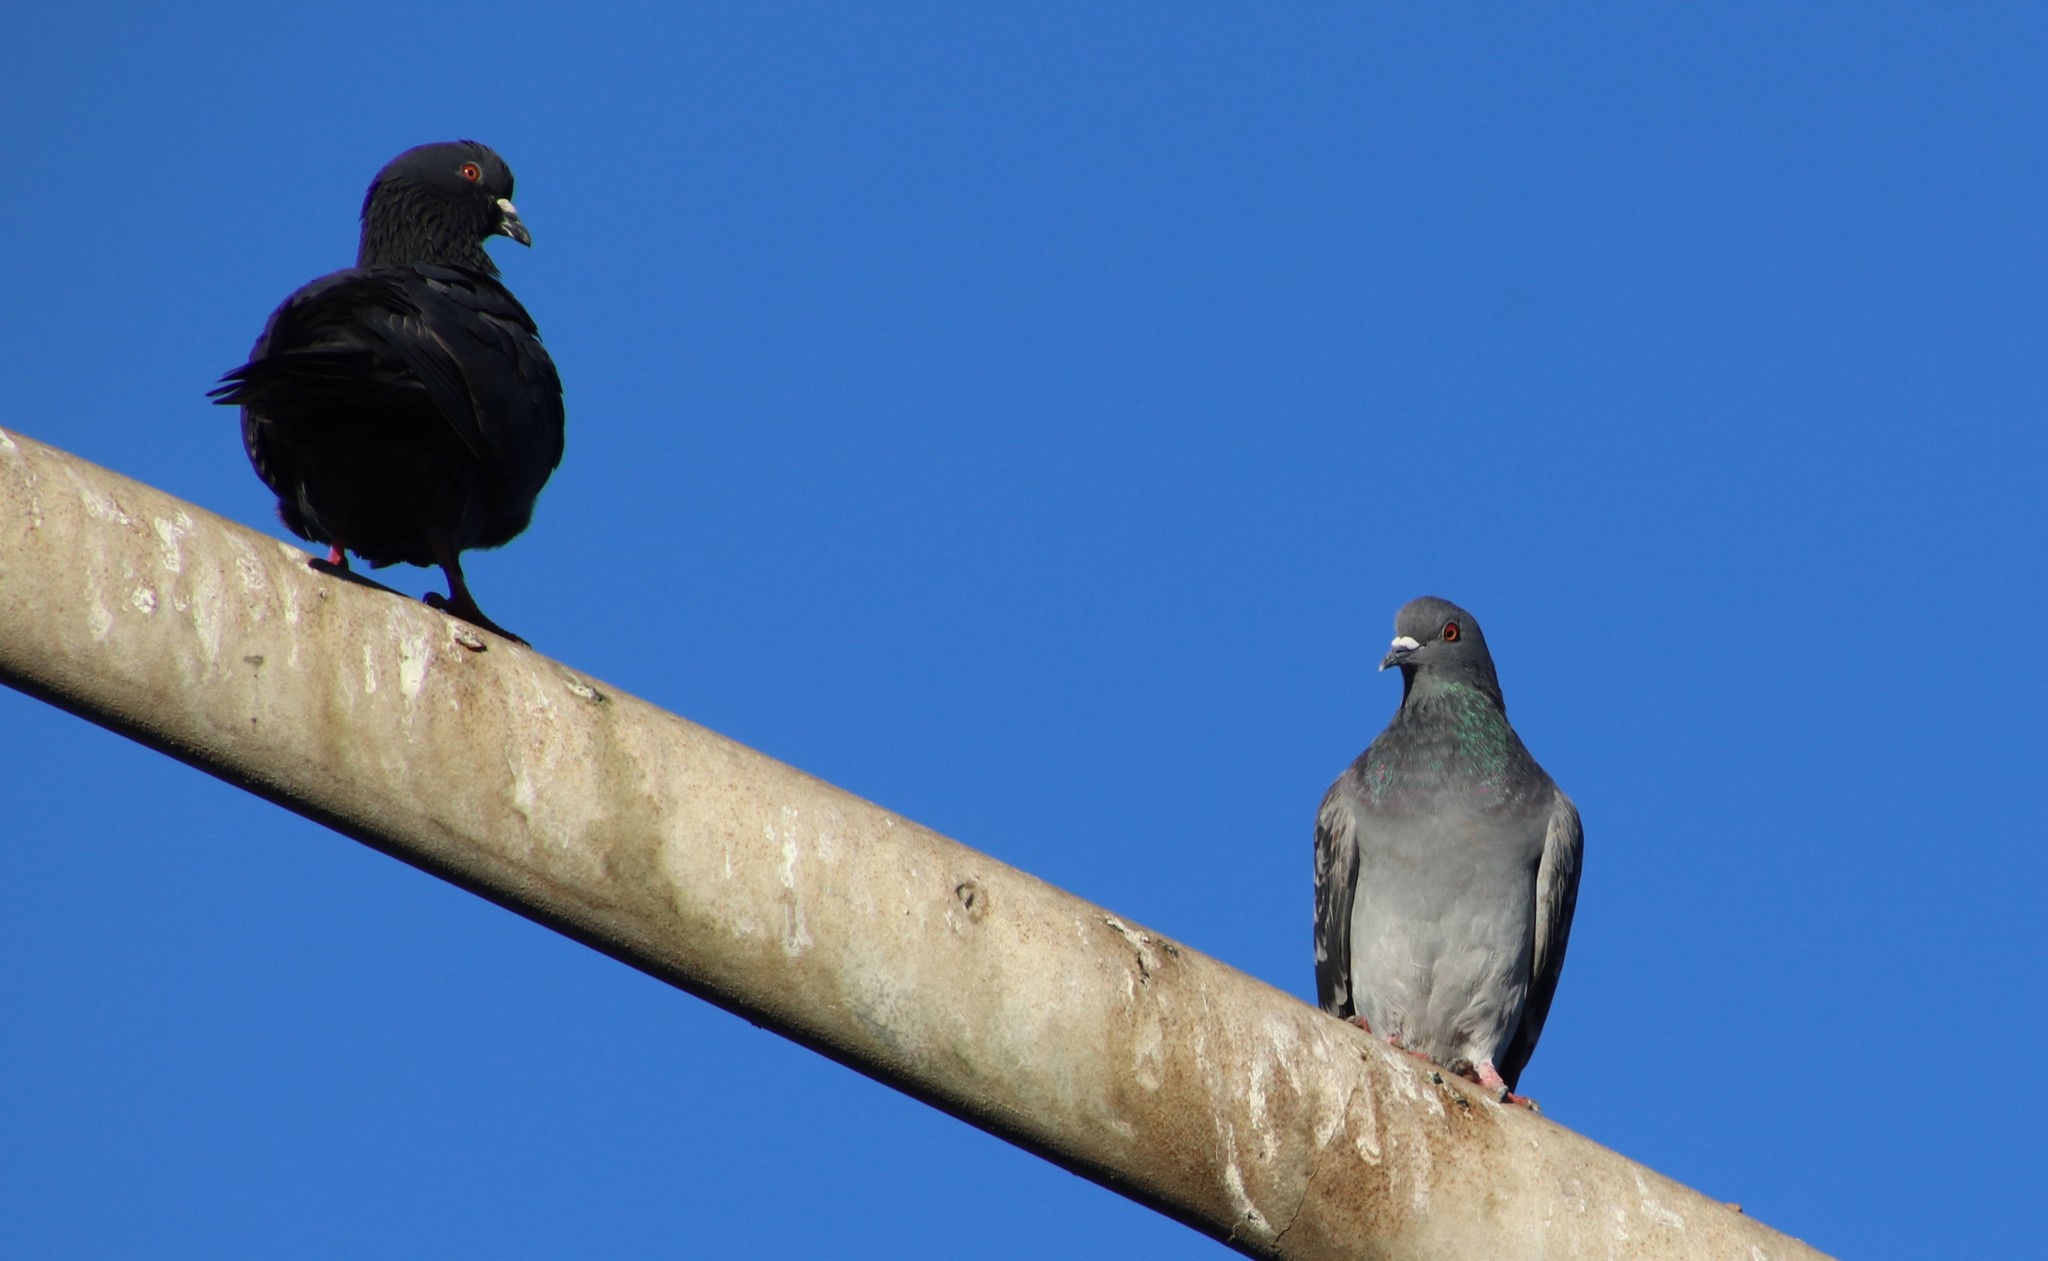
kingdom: Animalia
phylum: Chordata
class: Aves
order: Columbiformes
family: Columbidae
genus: Columba
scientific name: Columba livia
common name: Rock pigeon
